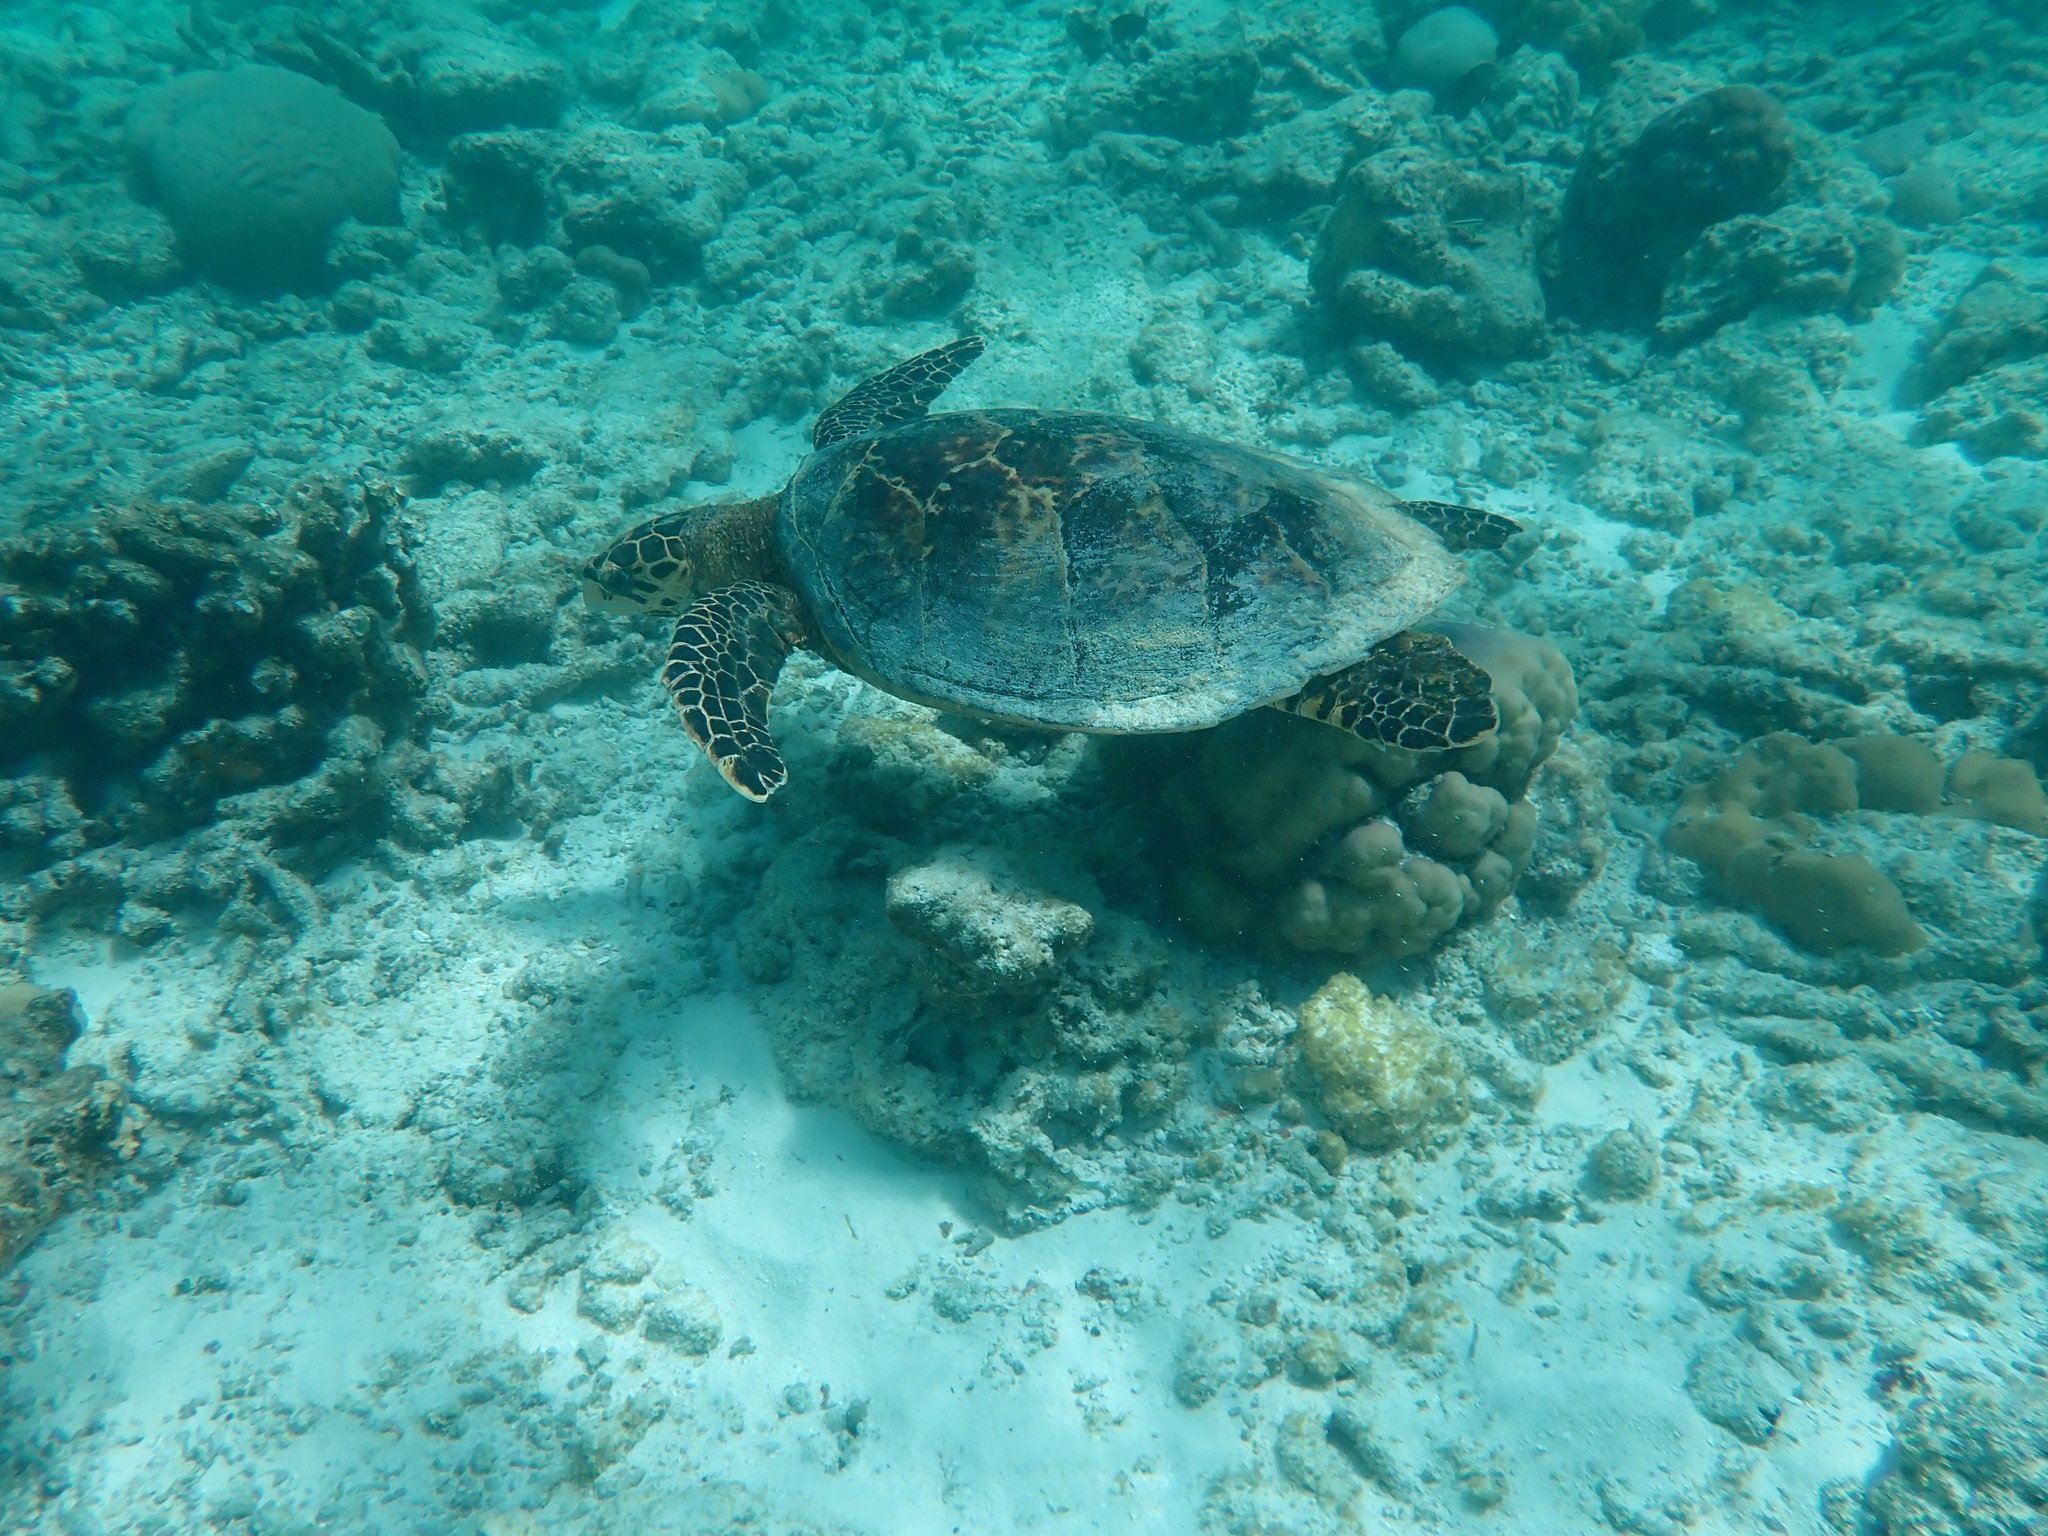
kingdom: Animalia
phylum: Chordata
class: Testudines
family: Cheloniidae
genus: Eretmochelys
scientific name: Eretmochelys imbricata
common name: Hawksbill turtle
